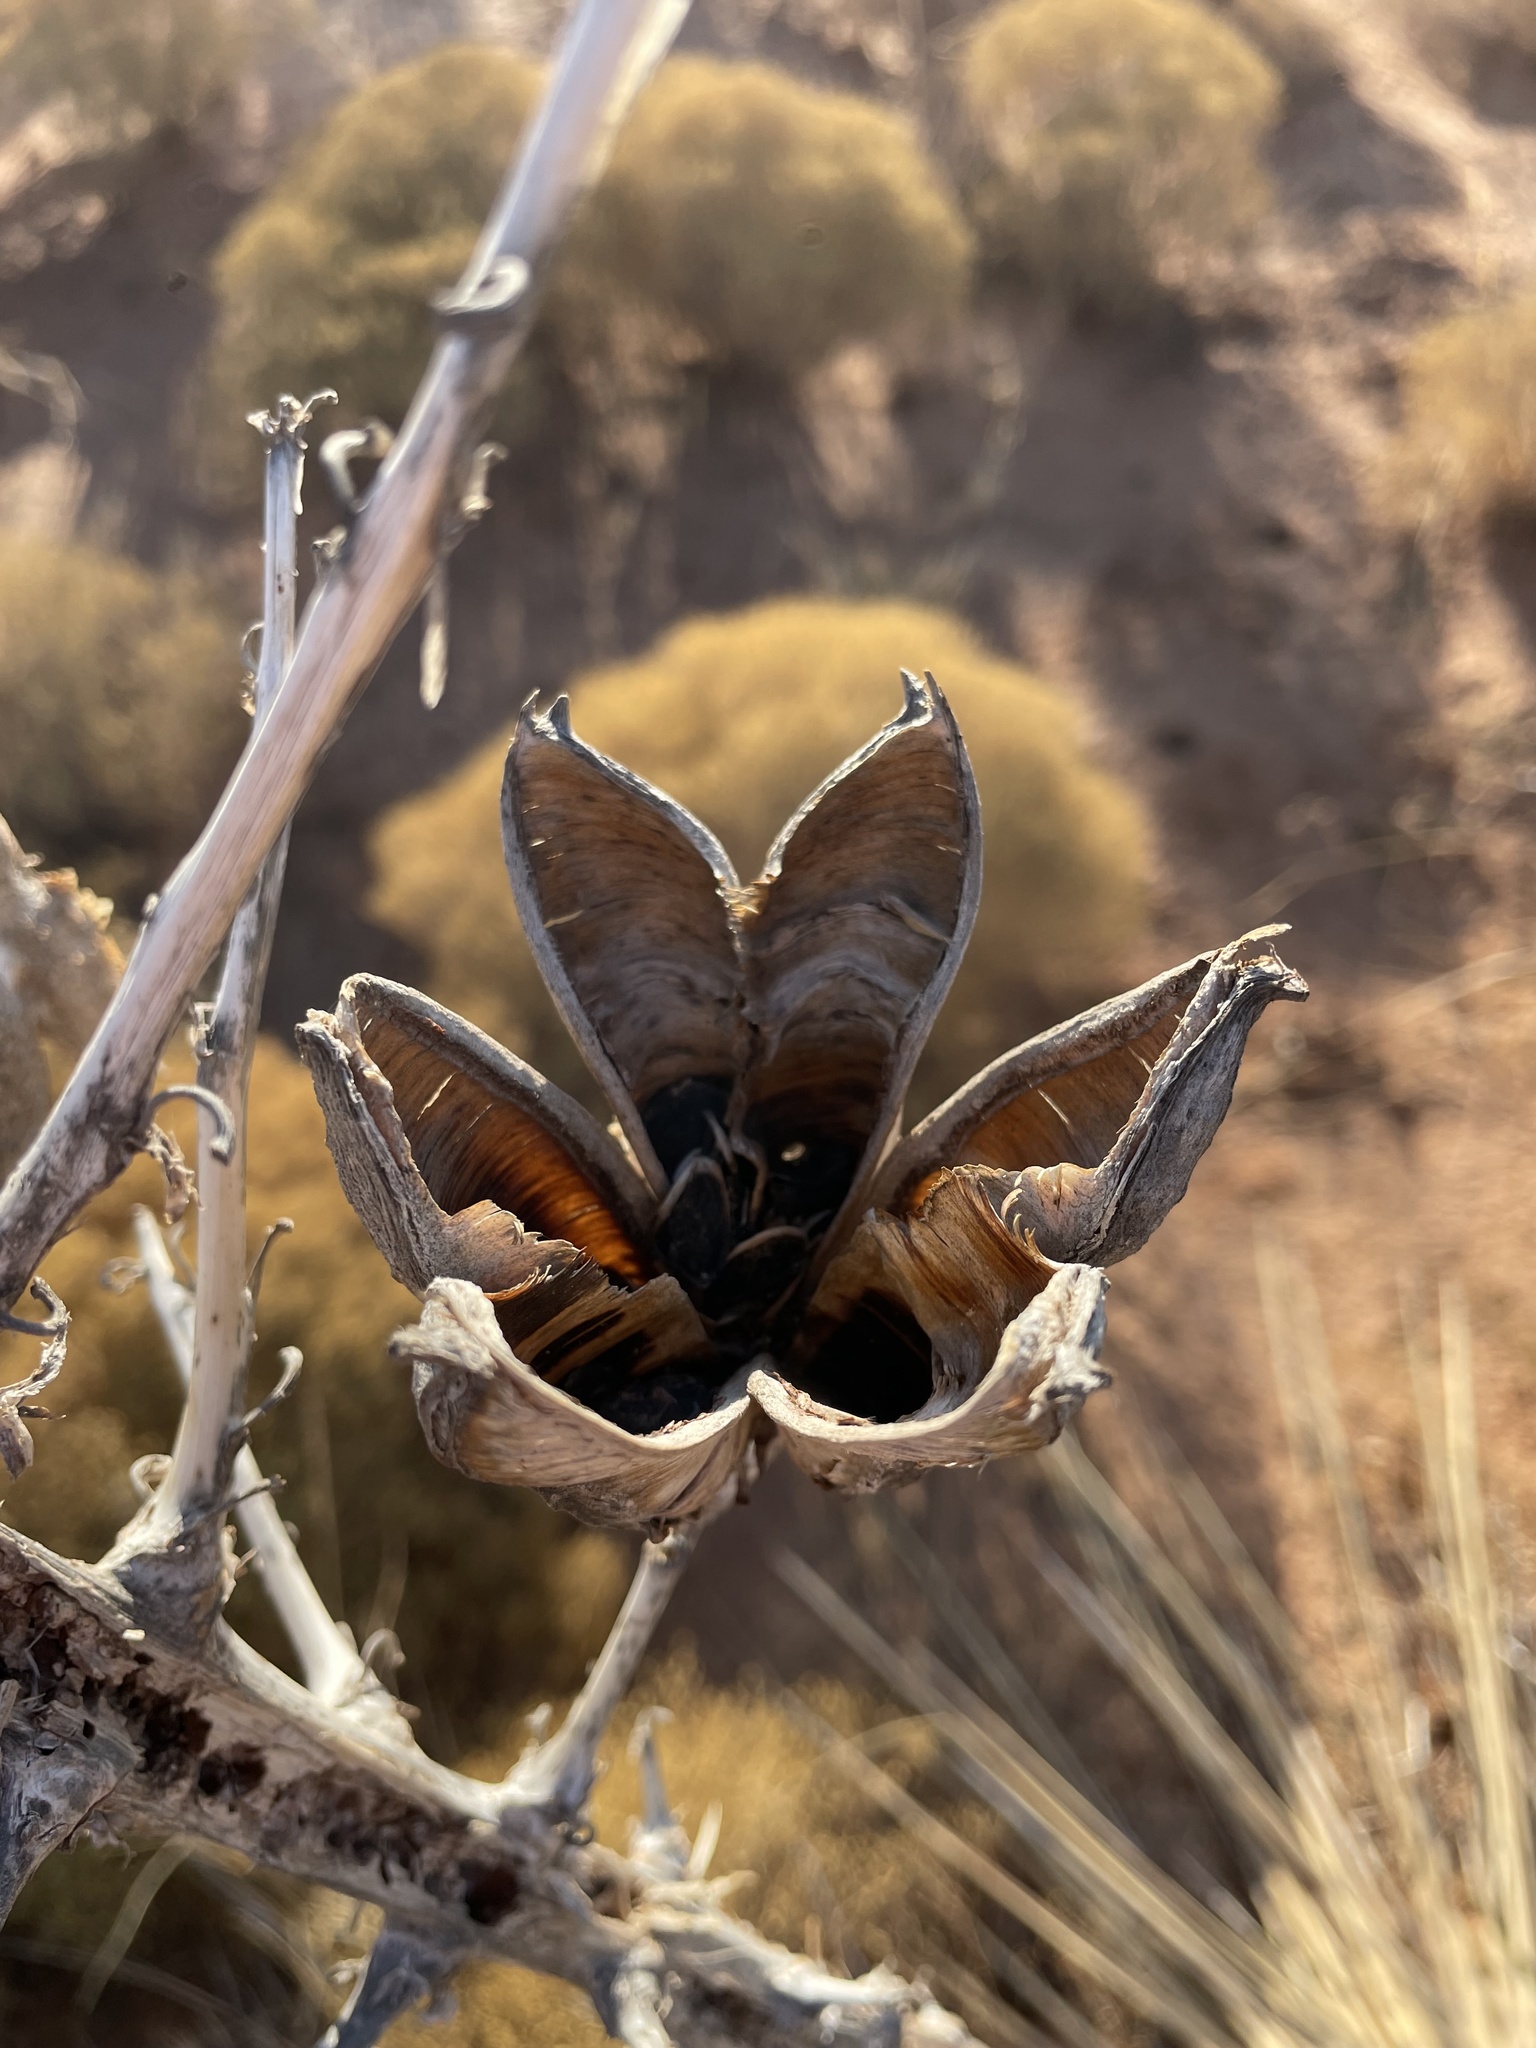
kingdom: Plantae
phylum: Tracheophyta
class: Liliopsida
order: Asparagales
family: Asparagaceae
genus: Yucca
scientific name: Yucca campestris
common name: Plains yucca
